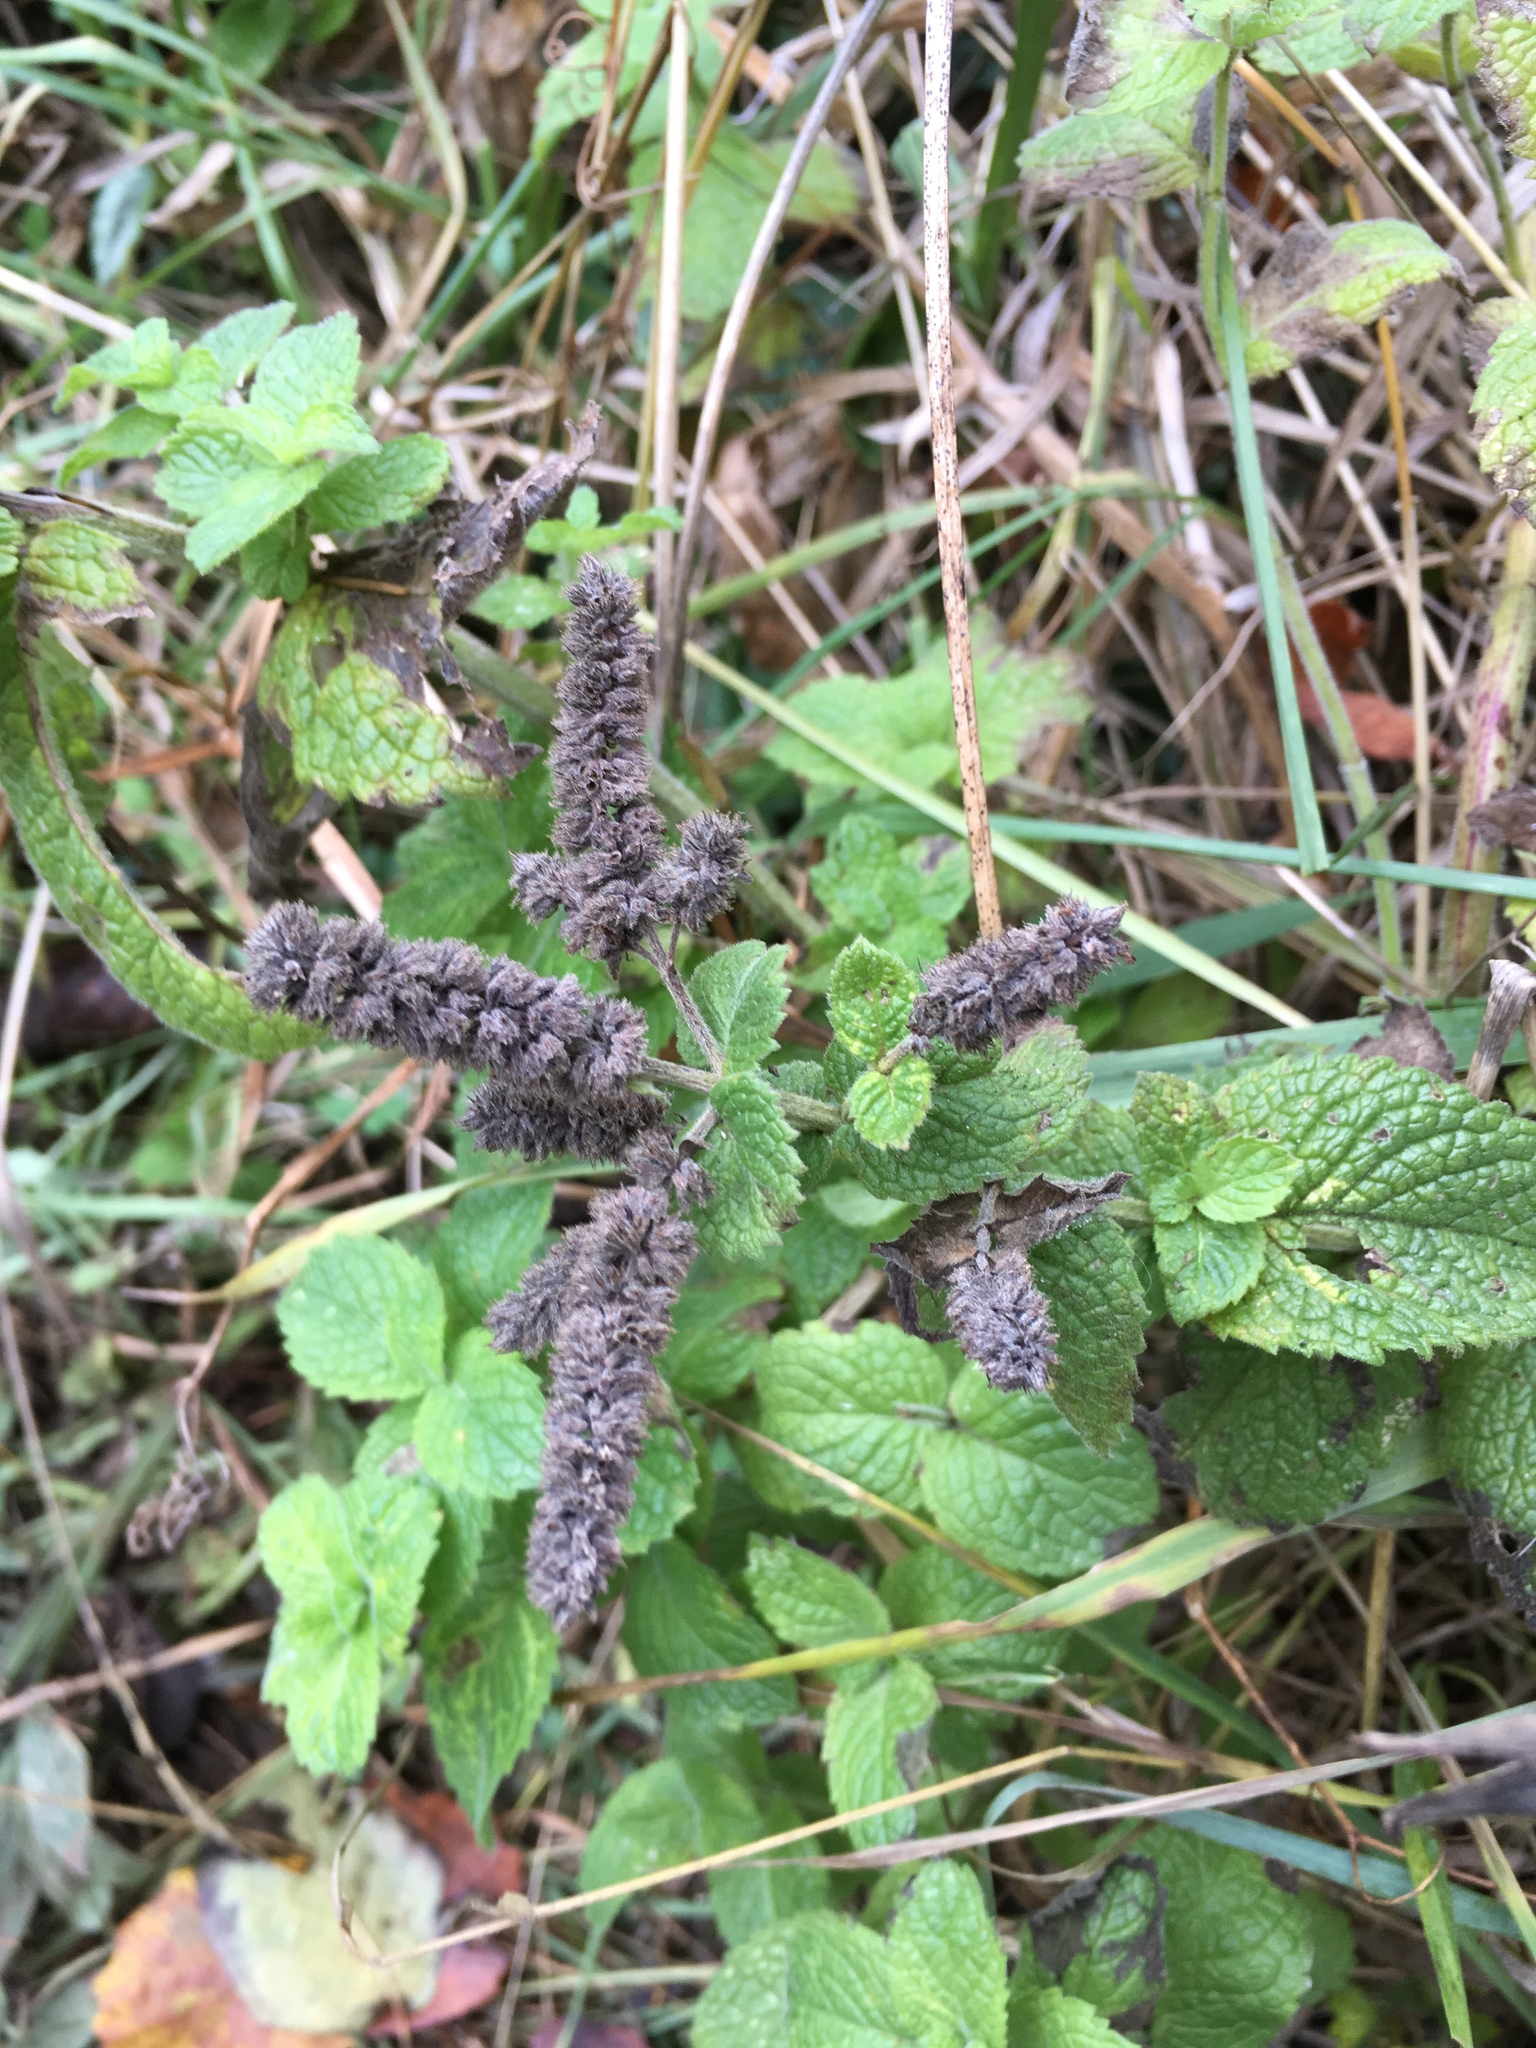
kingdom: Plantae
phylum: Tracheophyta
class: Magnoliopsida
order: Lamiales
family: Lamiaceae
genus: Mentha
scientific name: Mentha spicata
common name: Spearmint
